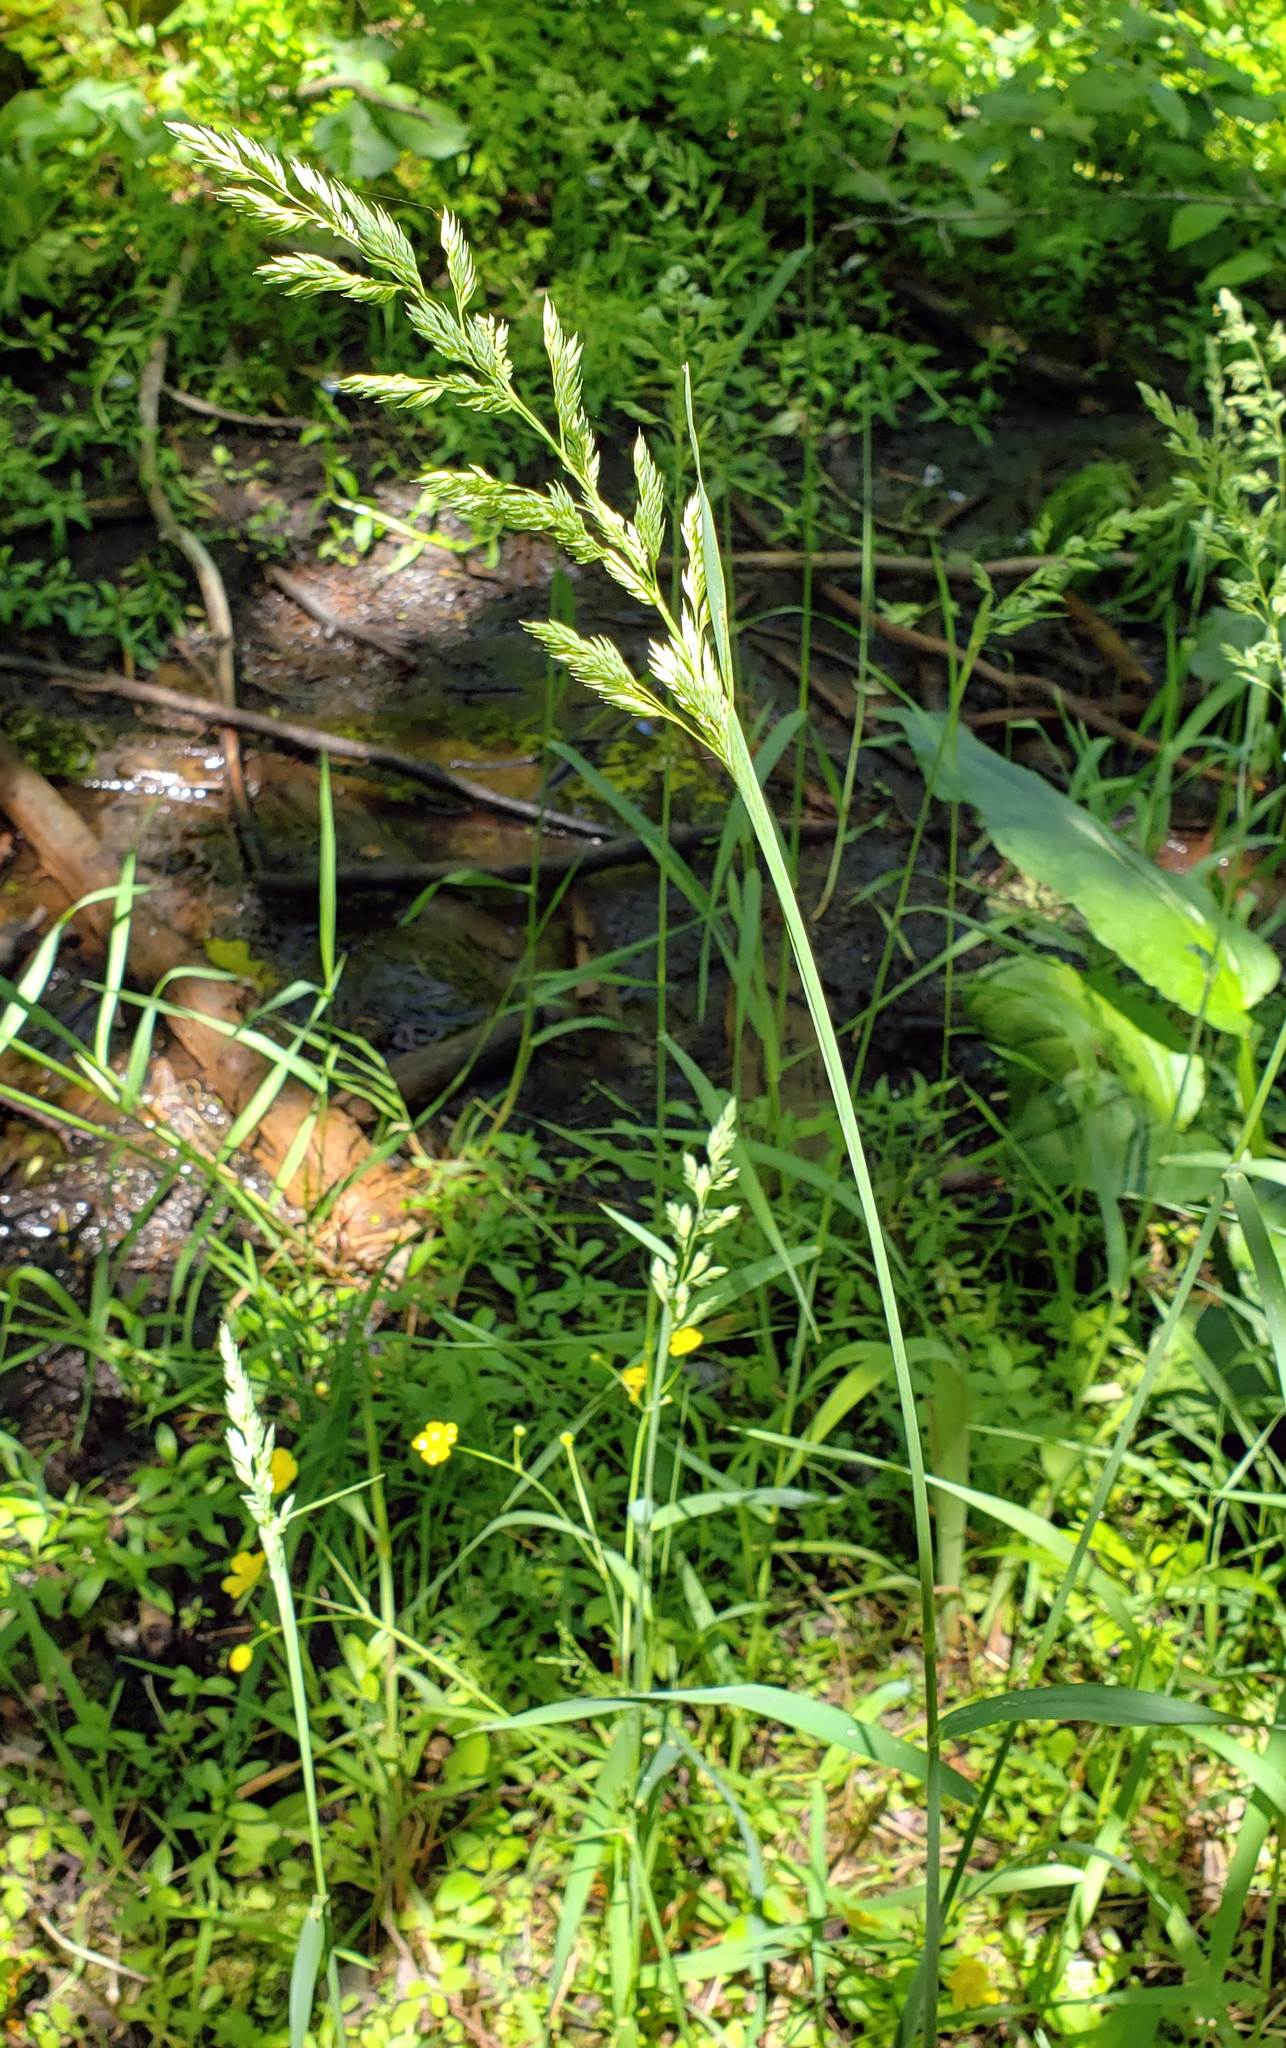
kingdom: Plantae
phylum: Tracheophyta
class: Liliopsida
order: Poales
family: Poaceae
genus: Phalaris
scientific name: Phalaris arundinacea
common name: Reed canary-grass
